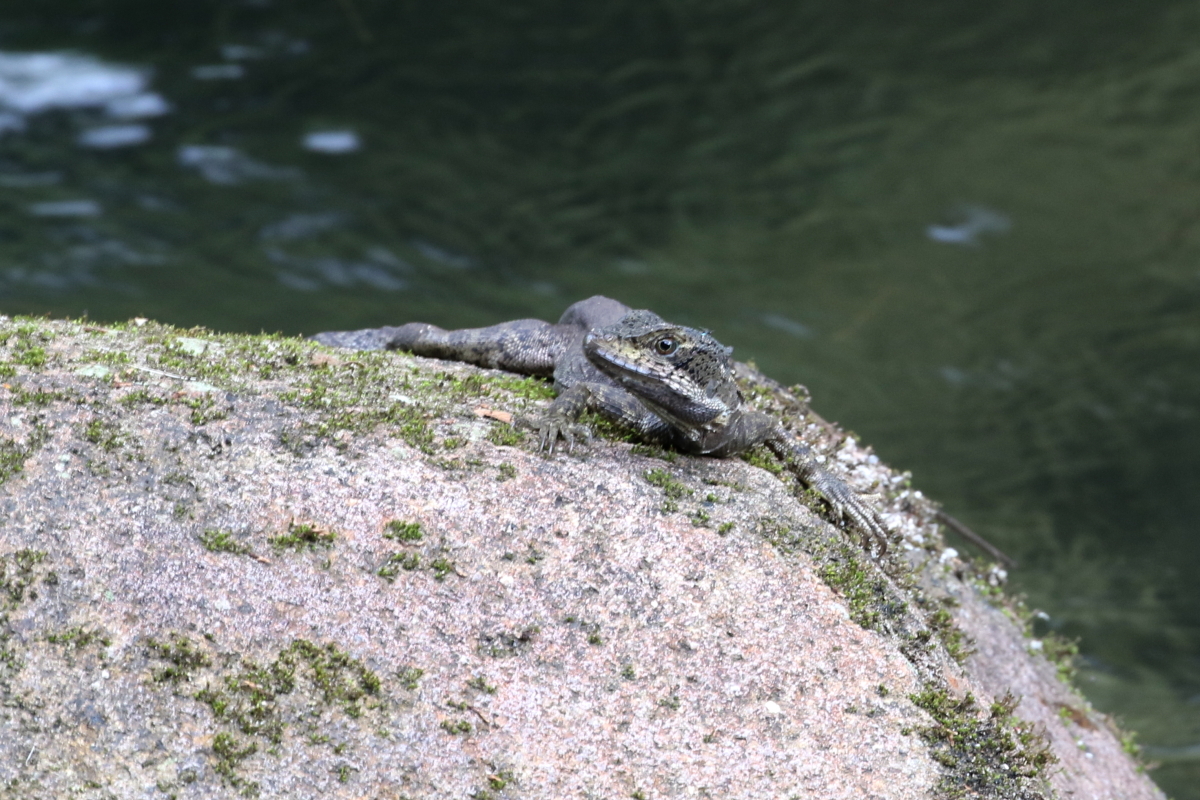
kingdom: Animalia
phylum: Chordata
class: Squamata
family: Corytophanidae
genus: Basiliscus
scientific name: Basiliscus basiliscus
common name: Common basilisk
